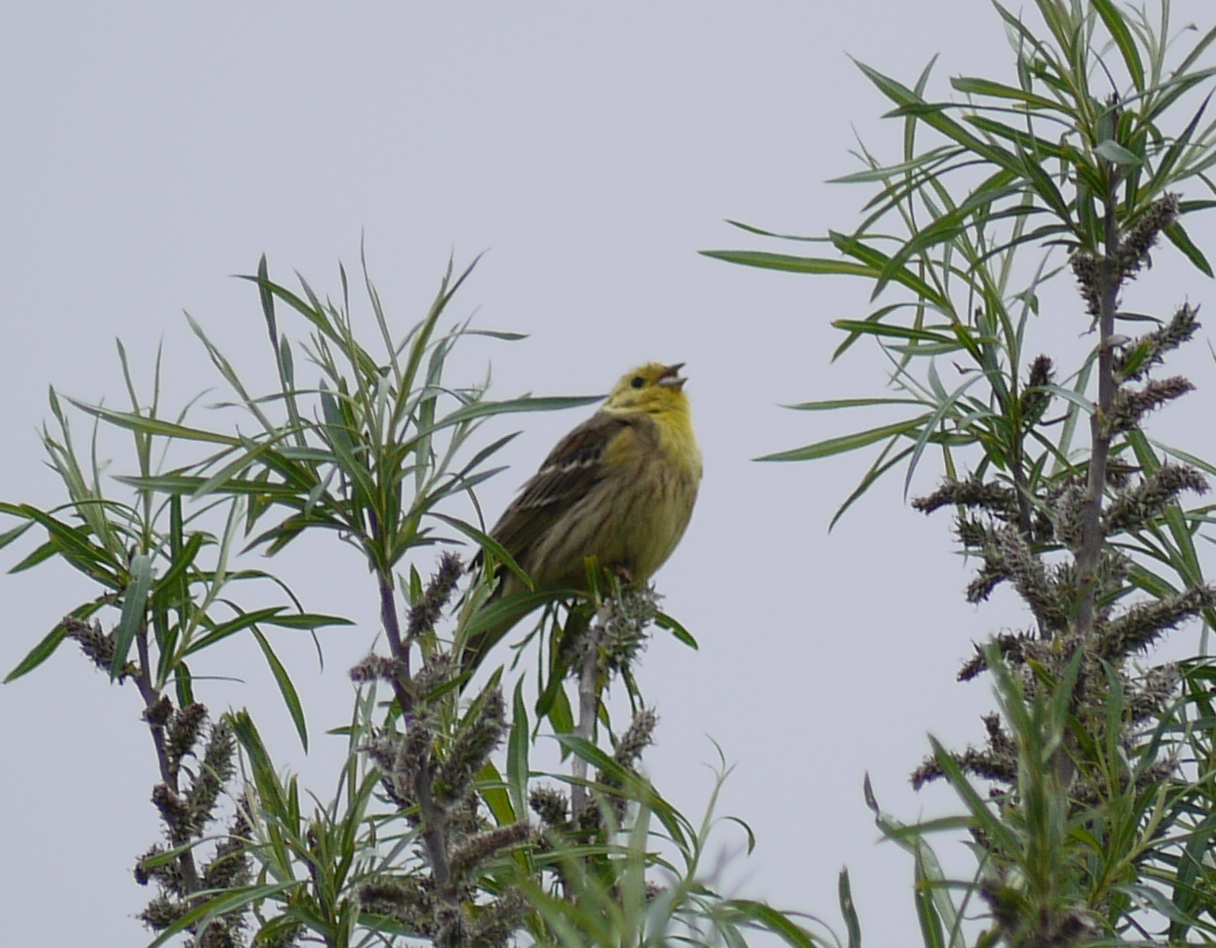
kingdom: Animalia
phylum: Chordata
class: Aves
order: Passeriformes
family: Emberizidae
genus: Emberiza
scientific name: Emberiza citrinella
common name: Yellowhammer
